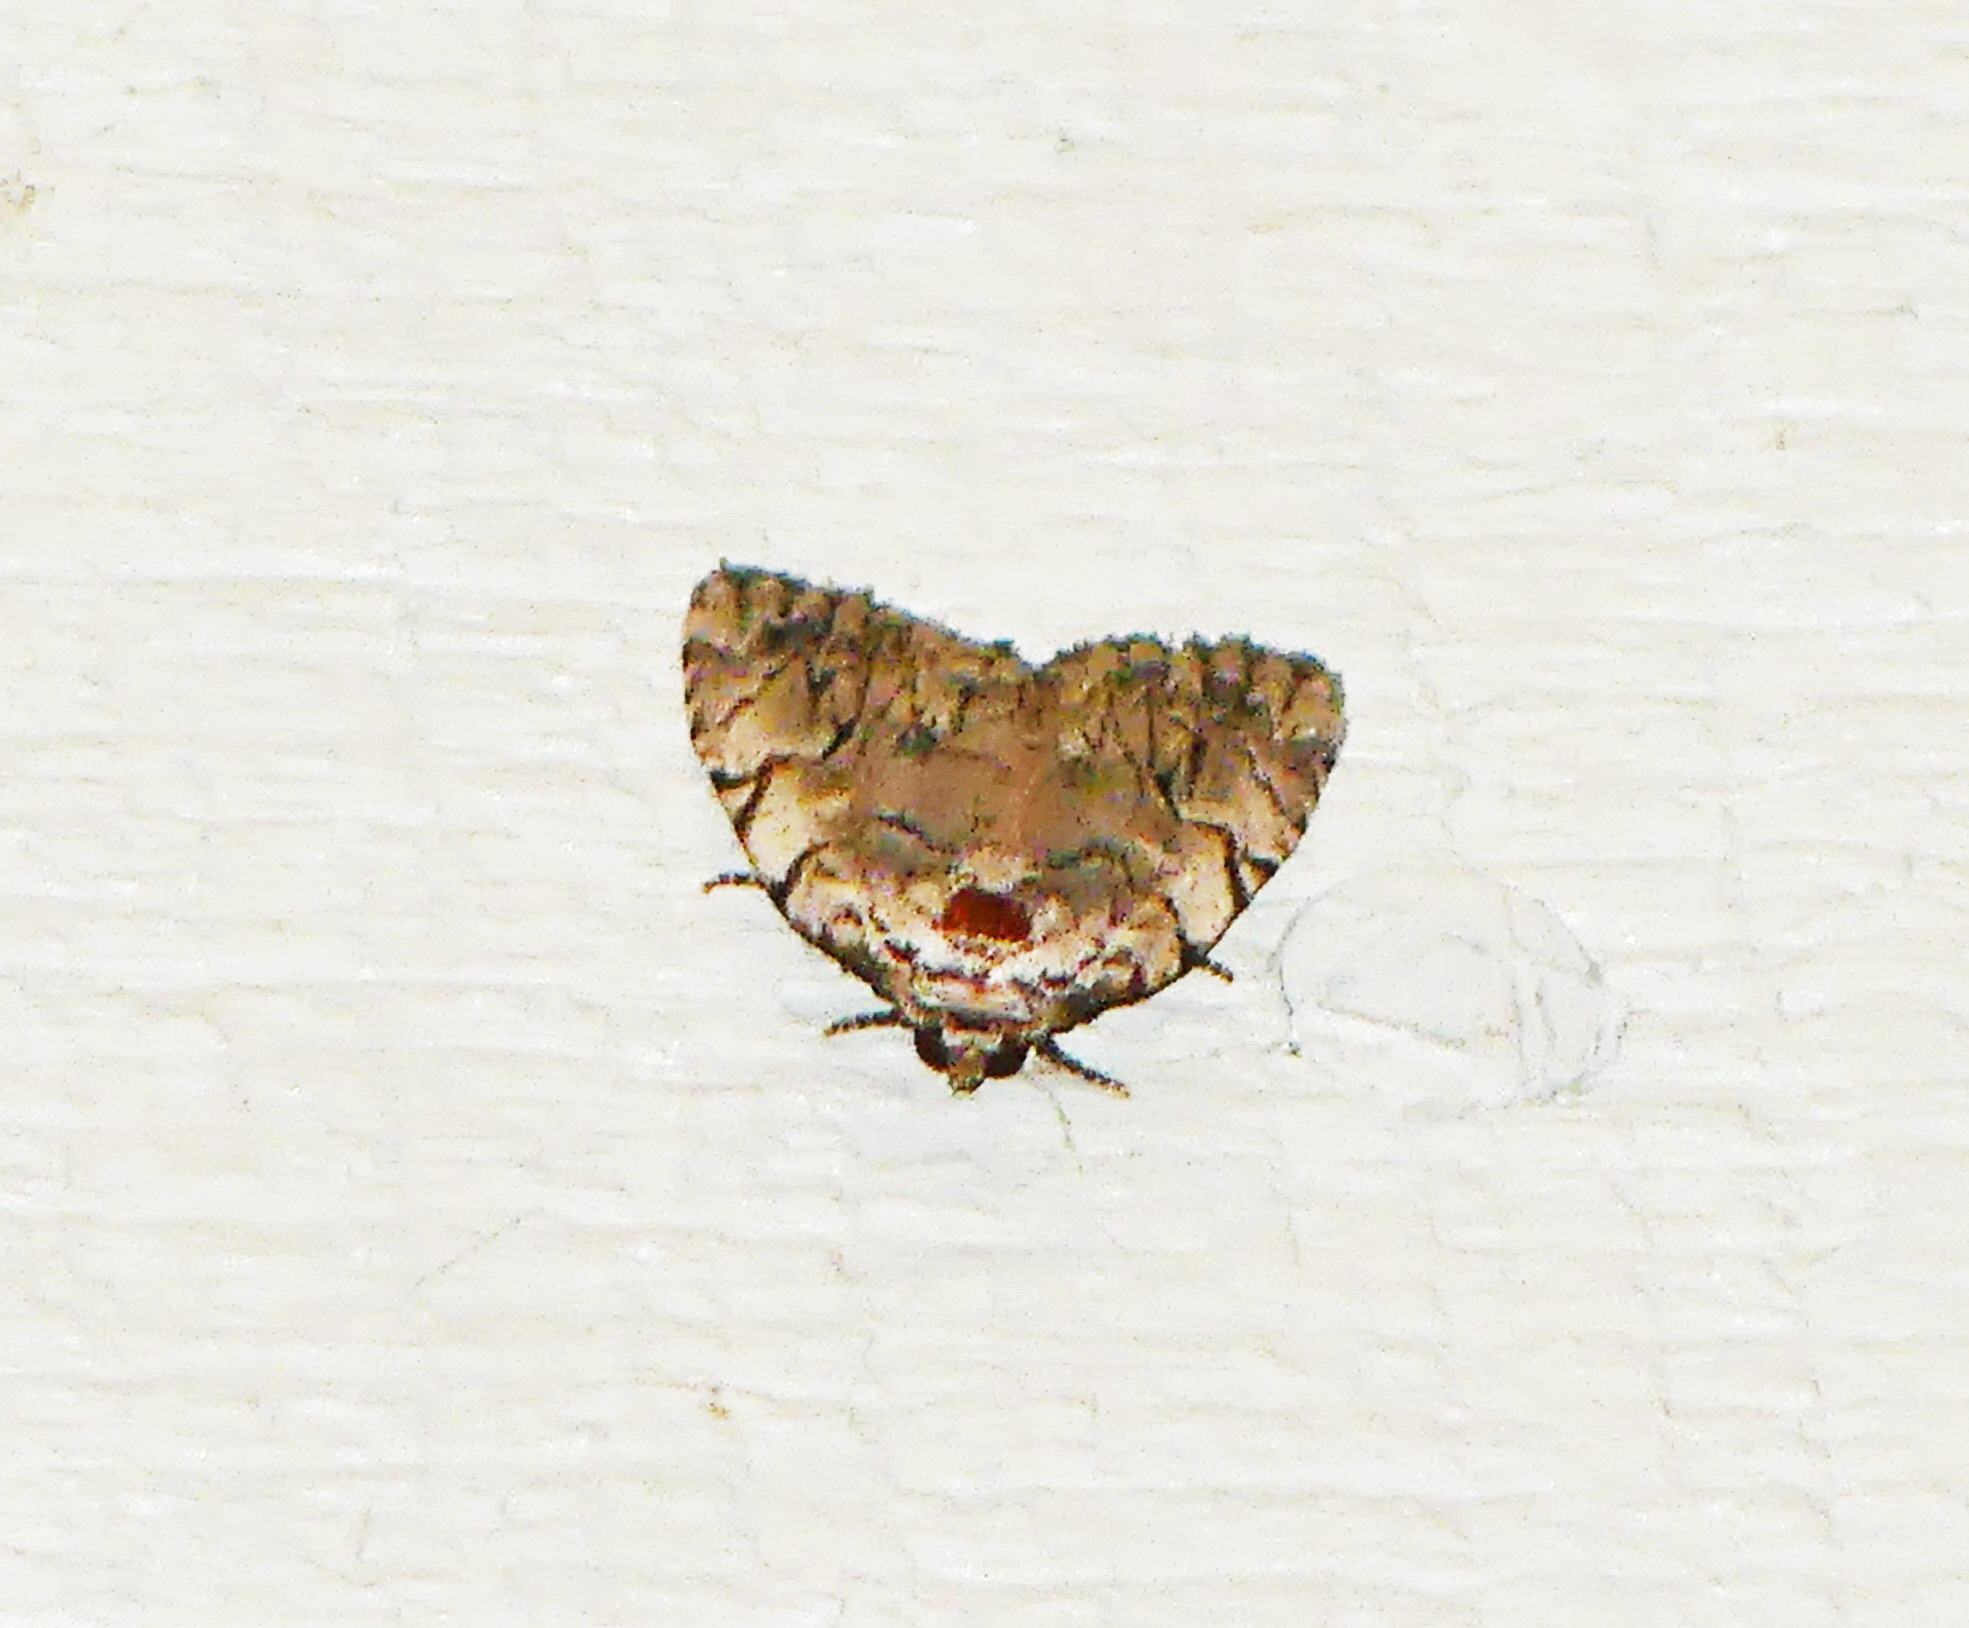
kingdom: Animalia
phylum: Arthropoda
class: Insecta
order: Lepidoptera
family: Noctuidae
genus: Balsa
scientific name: Balsa malana
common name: Many-dotted appleworm moth
